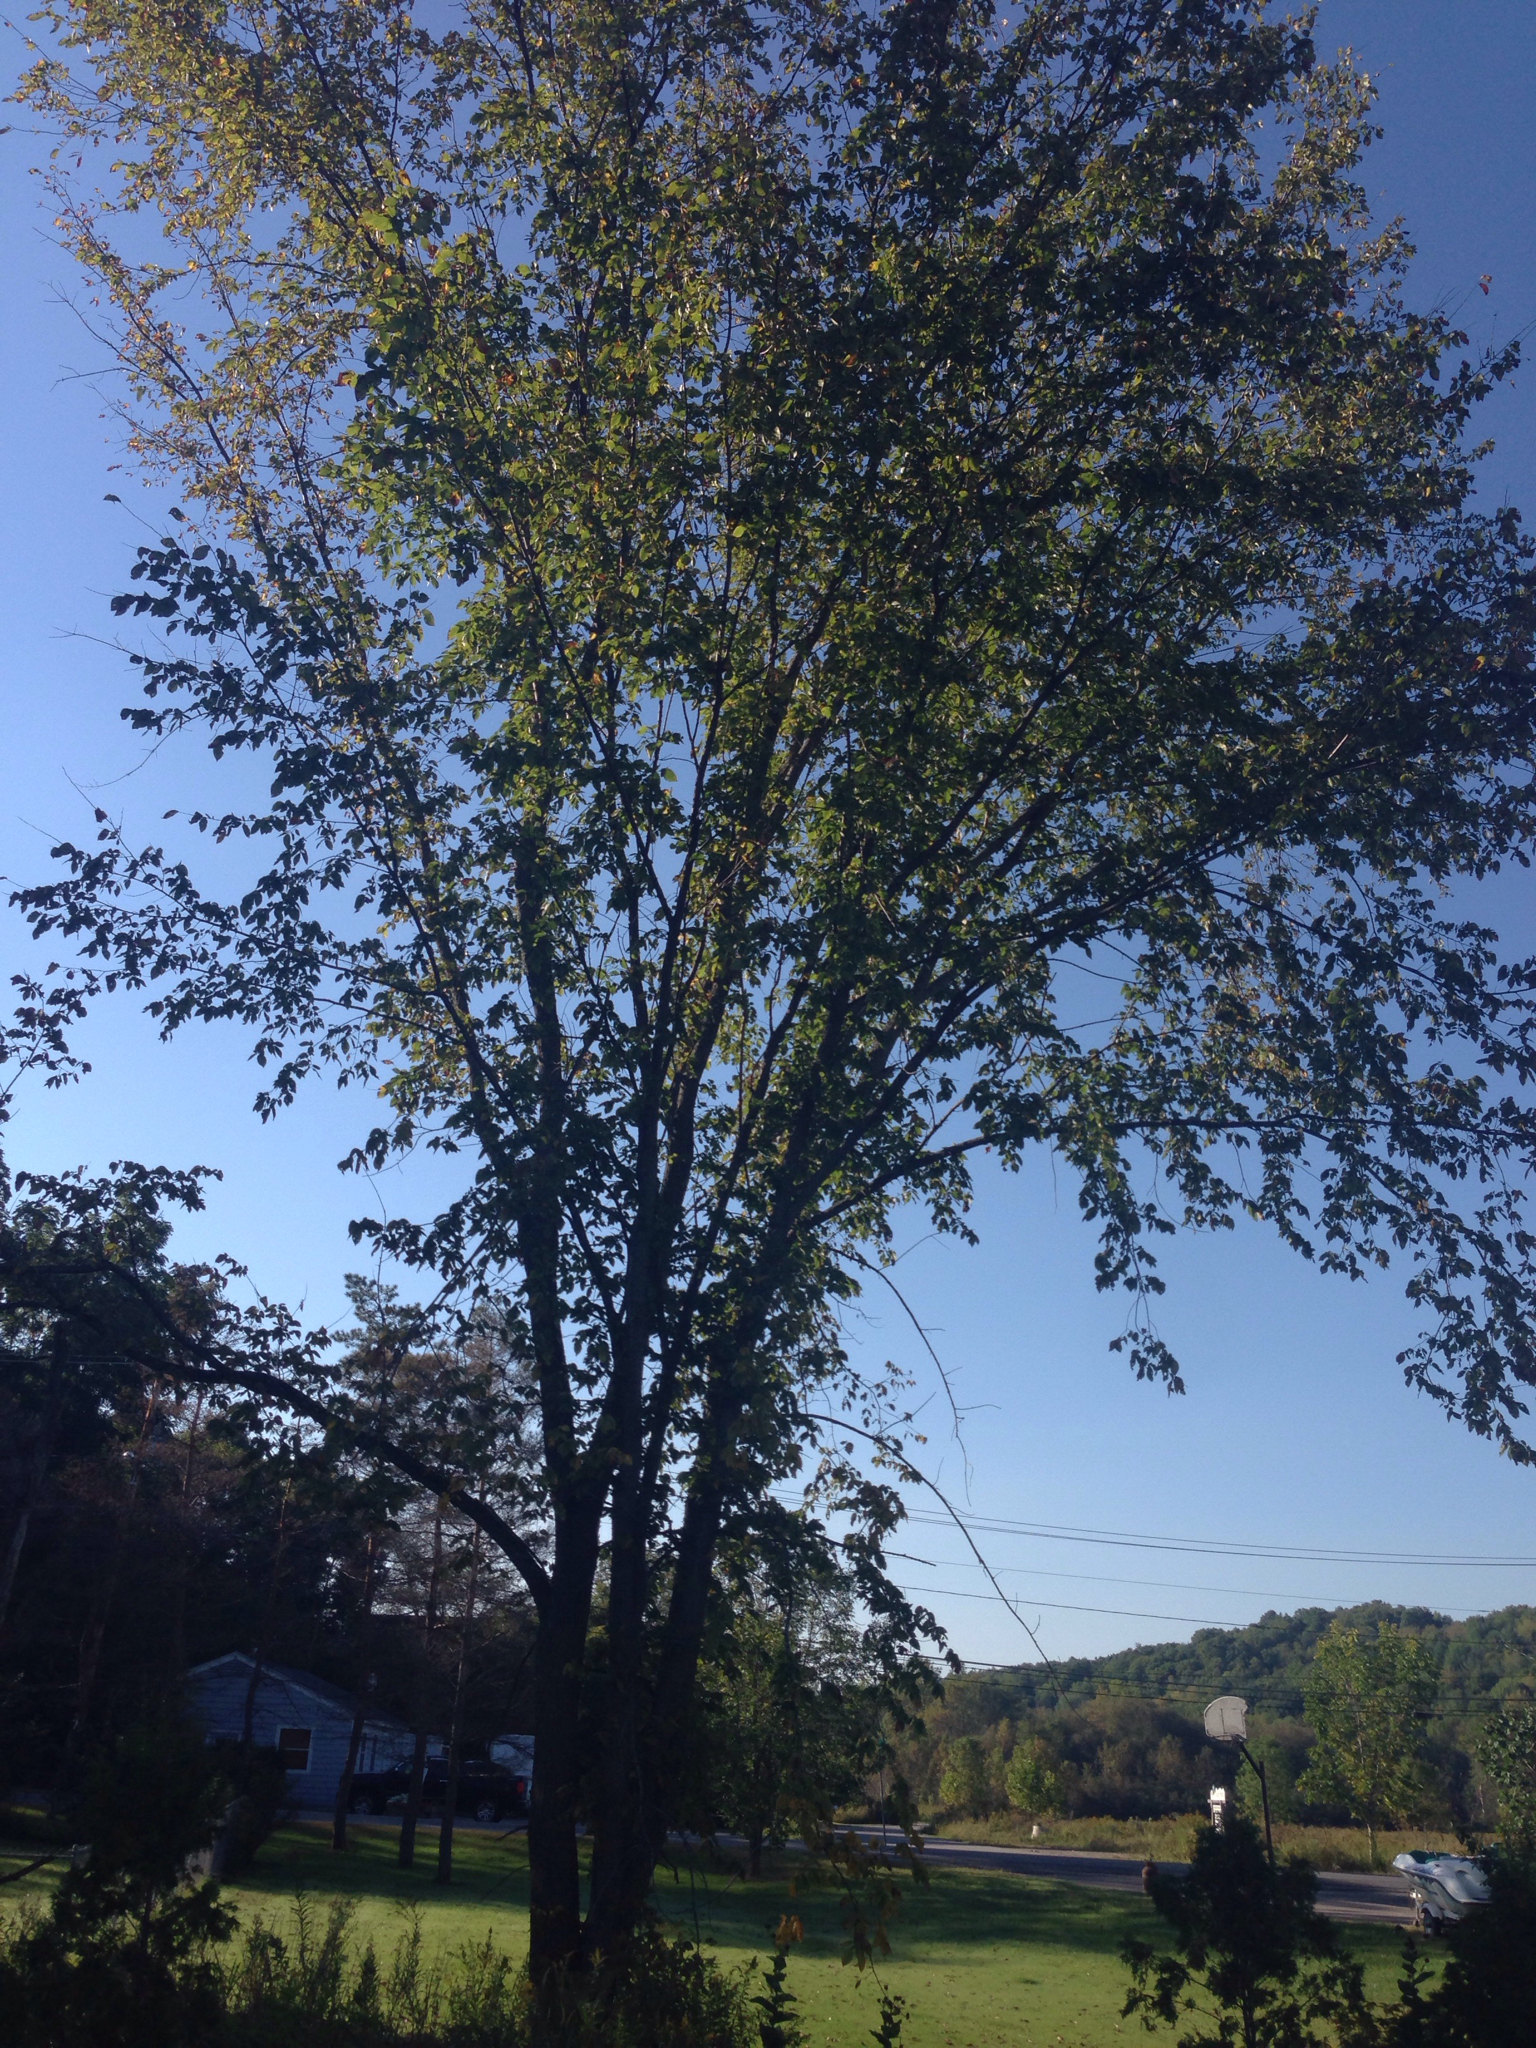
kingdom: Plantae
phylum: Tracheophyta
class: Magnoliopsida
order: Rosales
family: Ulmaceae
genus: Ulmus
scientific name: Ulmus americana
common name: American elm
